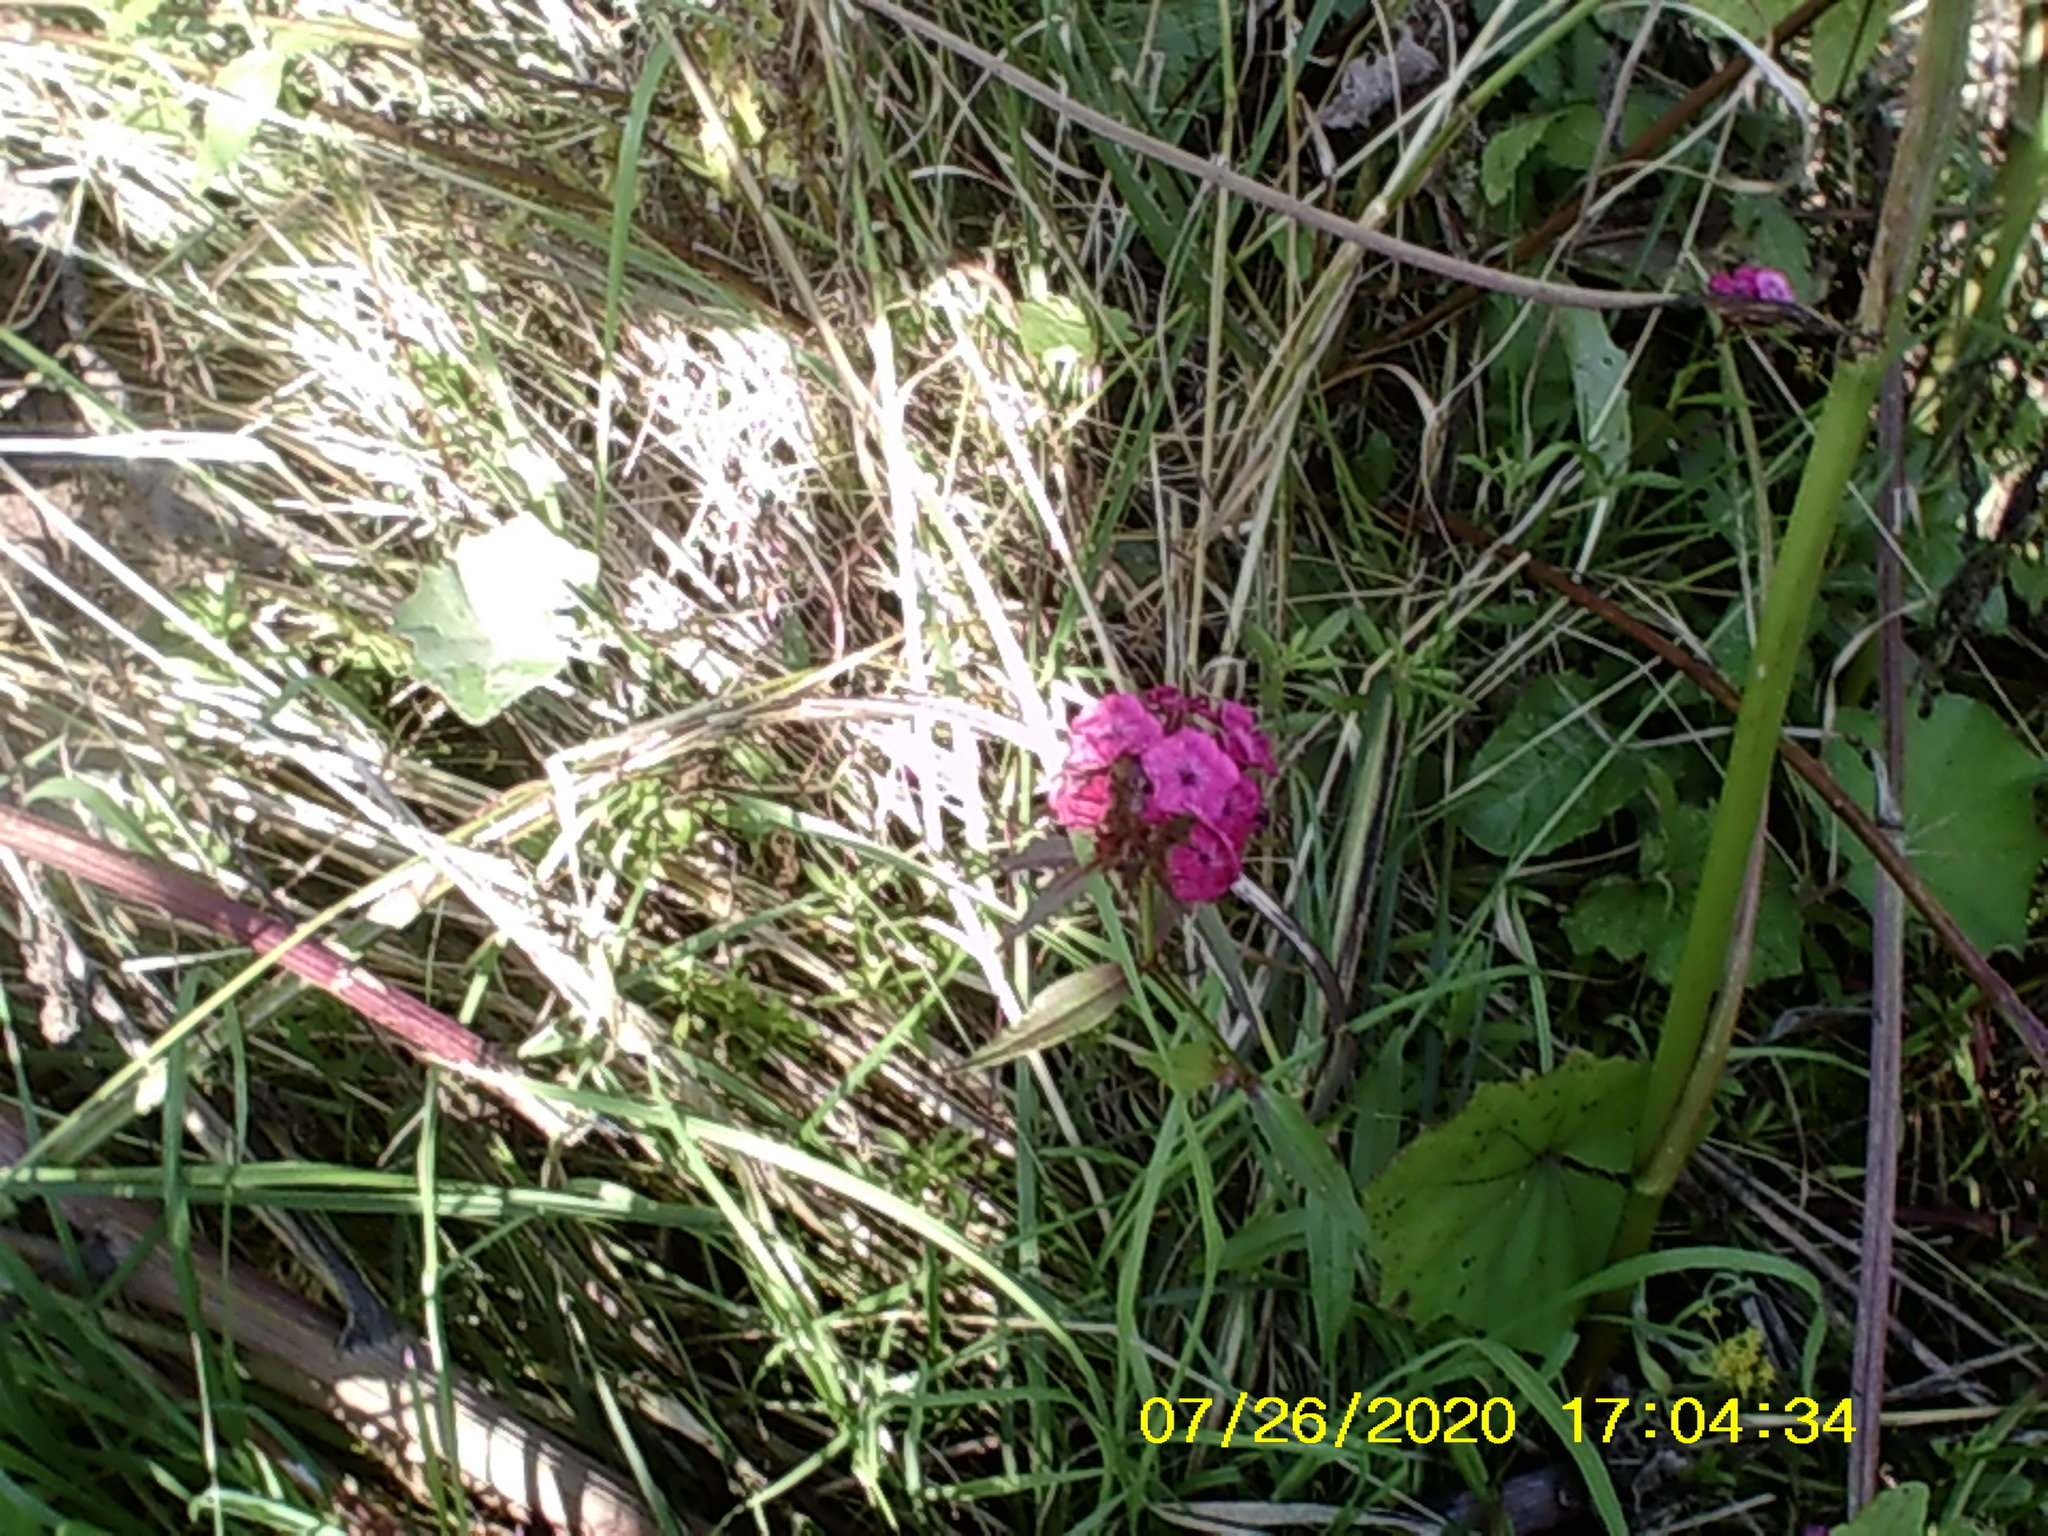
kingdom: Plantae
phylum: Tracheophyta
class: Magnoliopsida
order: Caryophyllales
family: Caryophyllaceae
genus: Dianthus
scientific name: Dianthus barbatus
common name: Sweet-william
